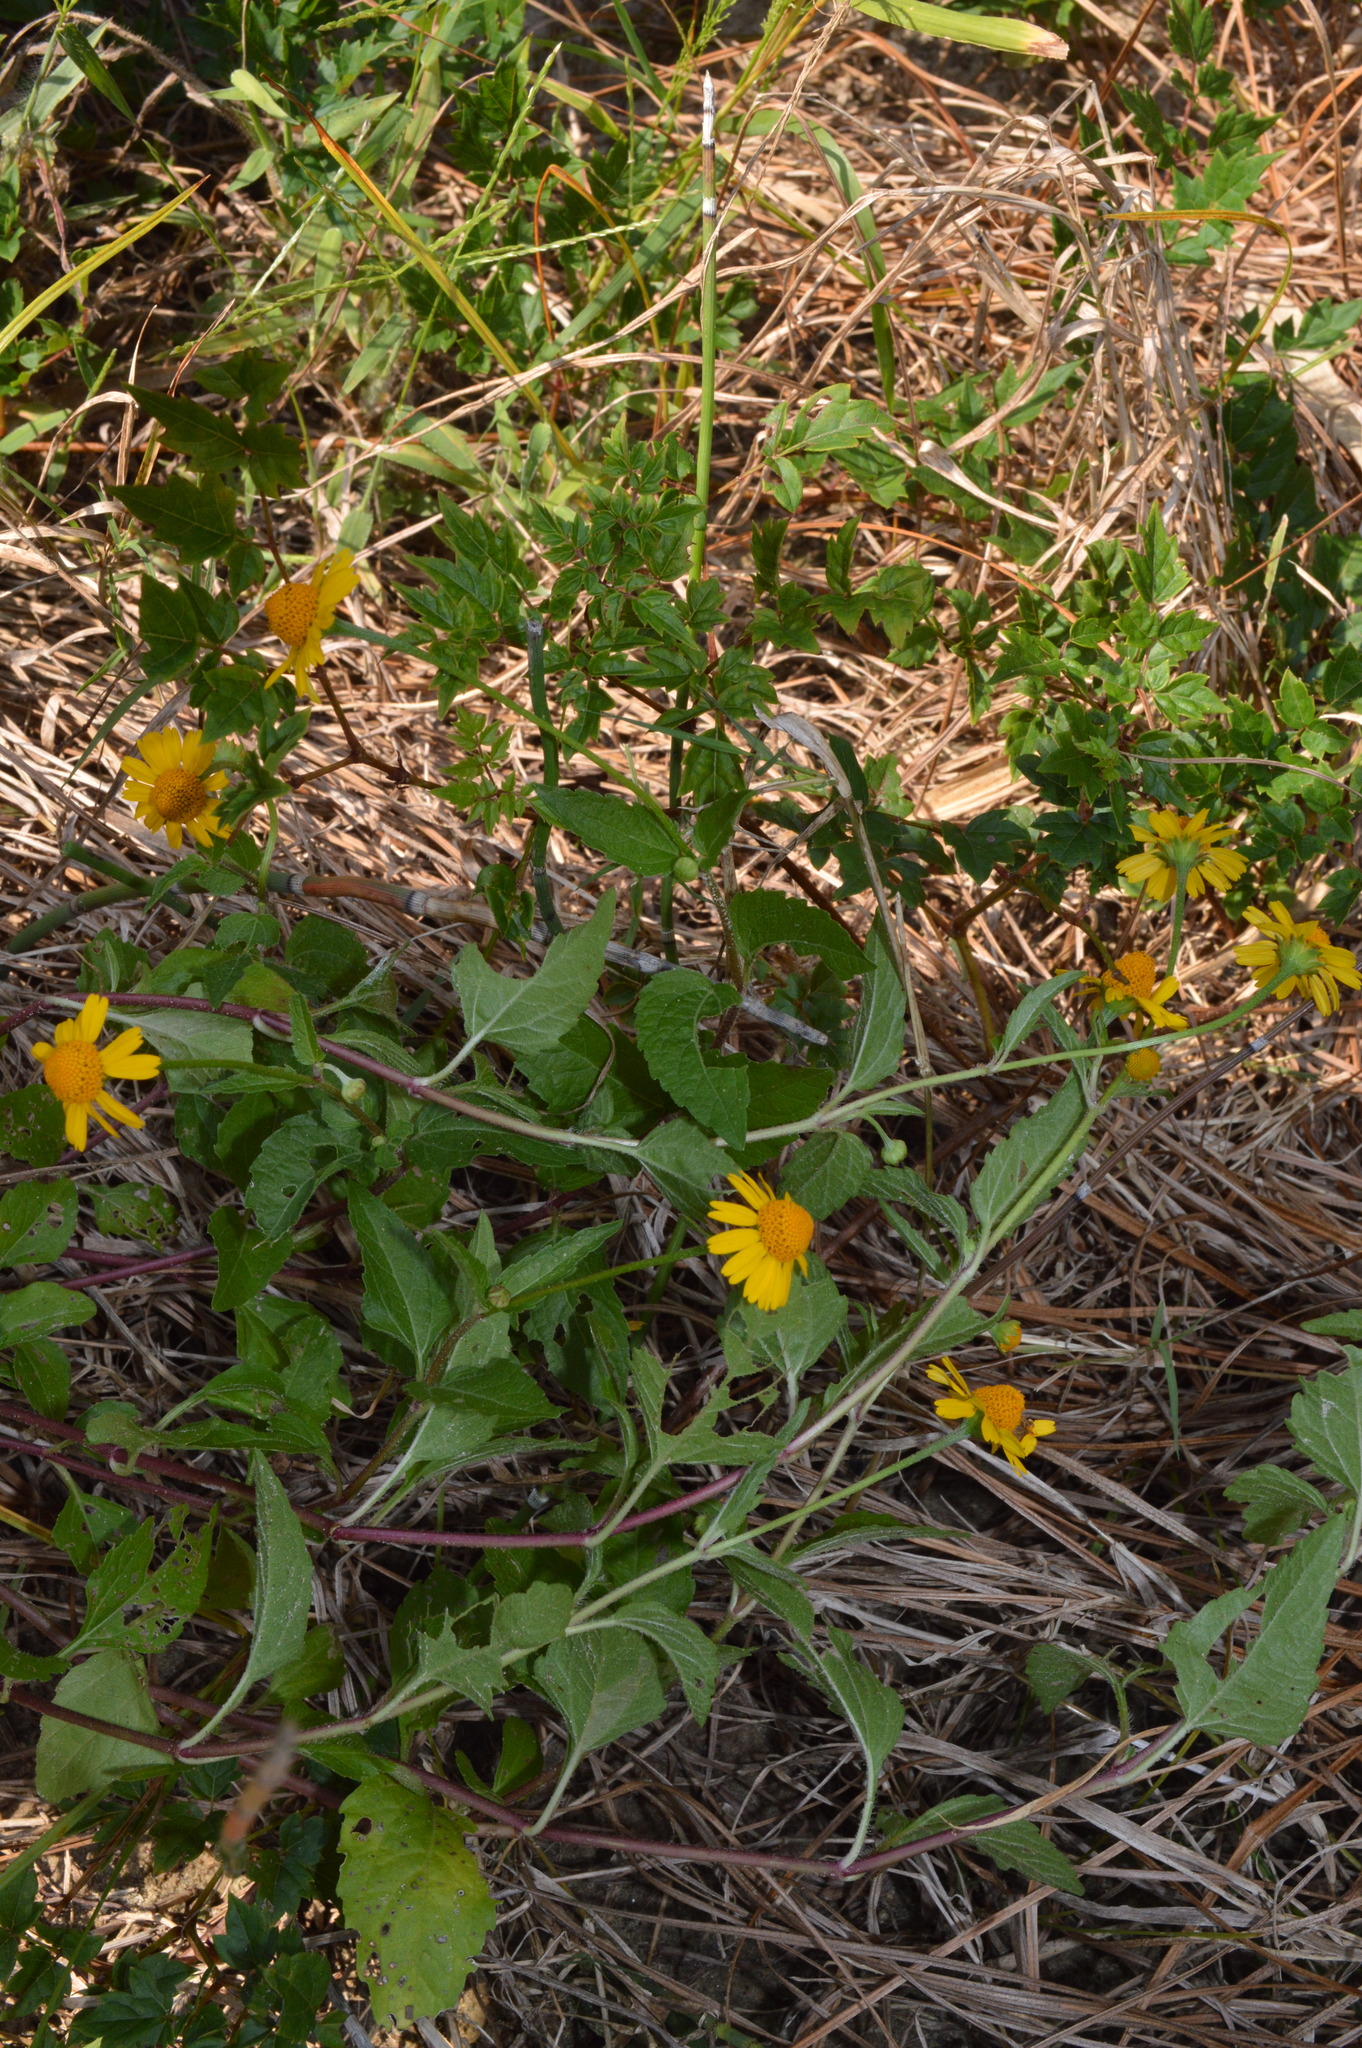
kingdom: Plantae
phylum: Tracheophyta
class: Magnoliopsida
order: Asterales
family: Asteraceae
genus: Acmella
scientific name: Acmella repens
